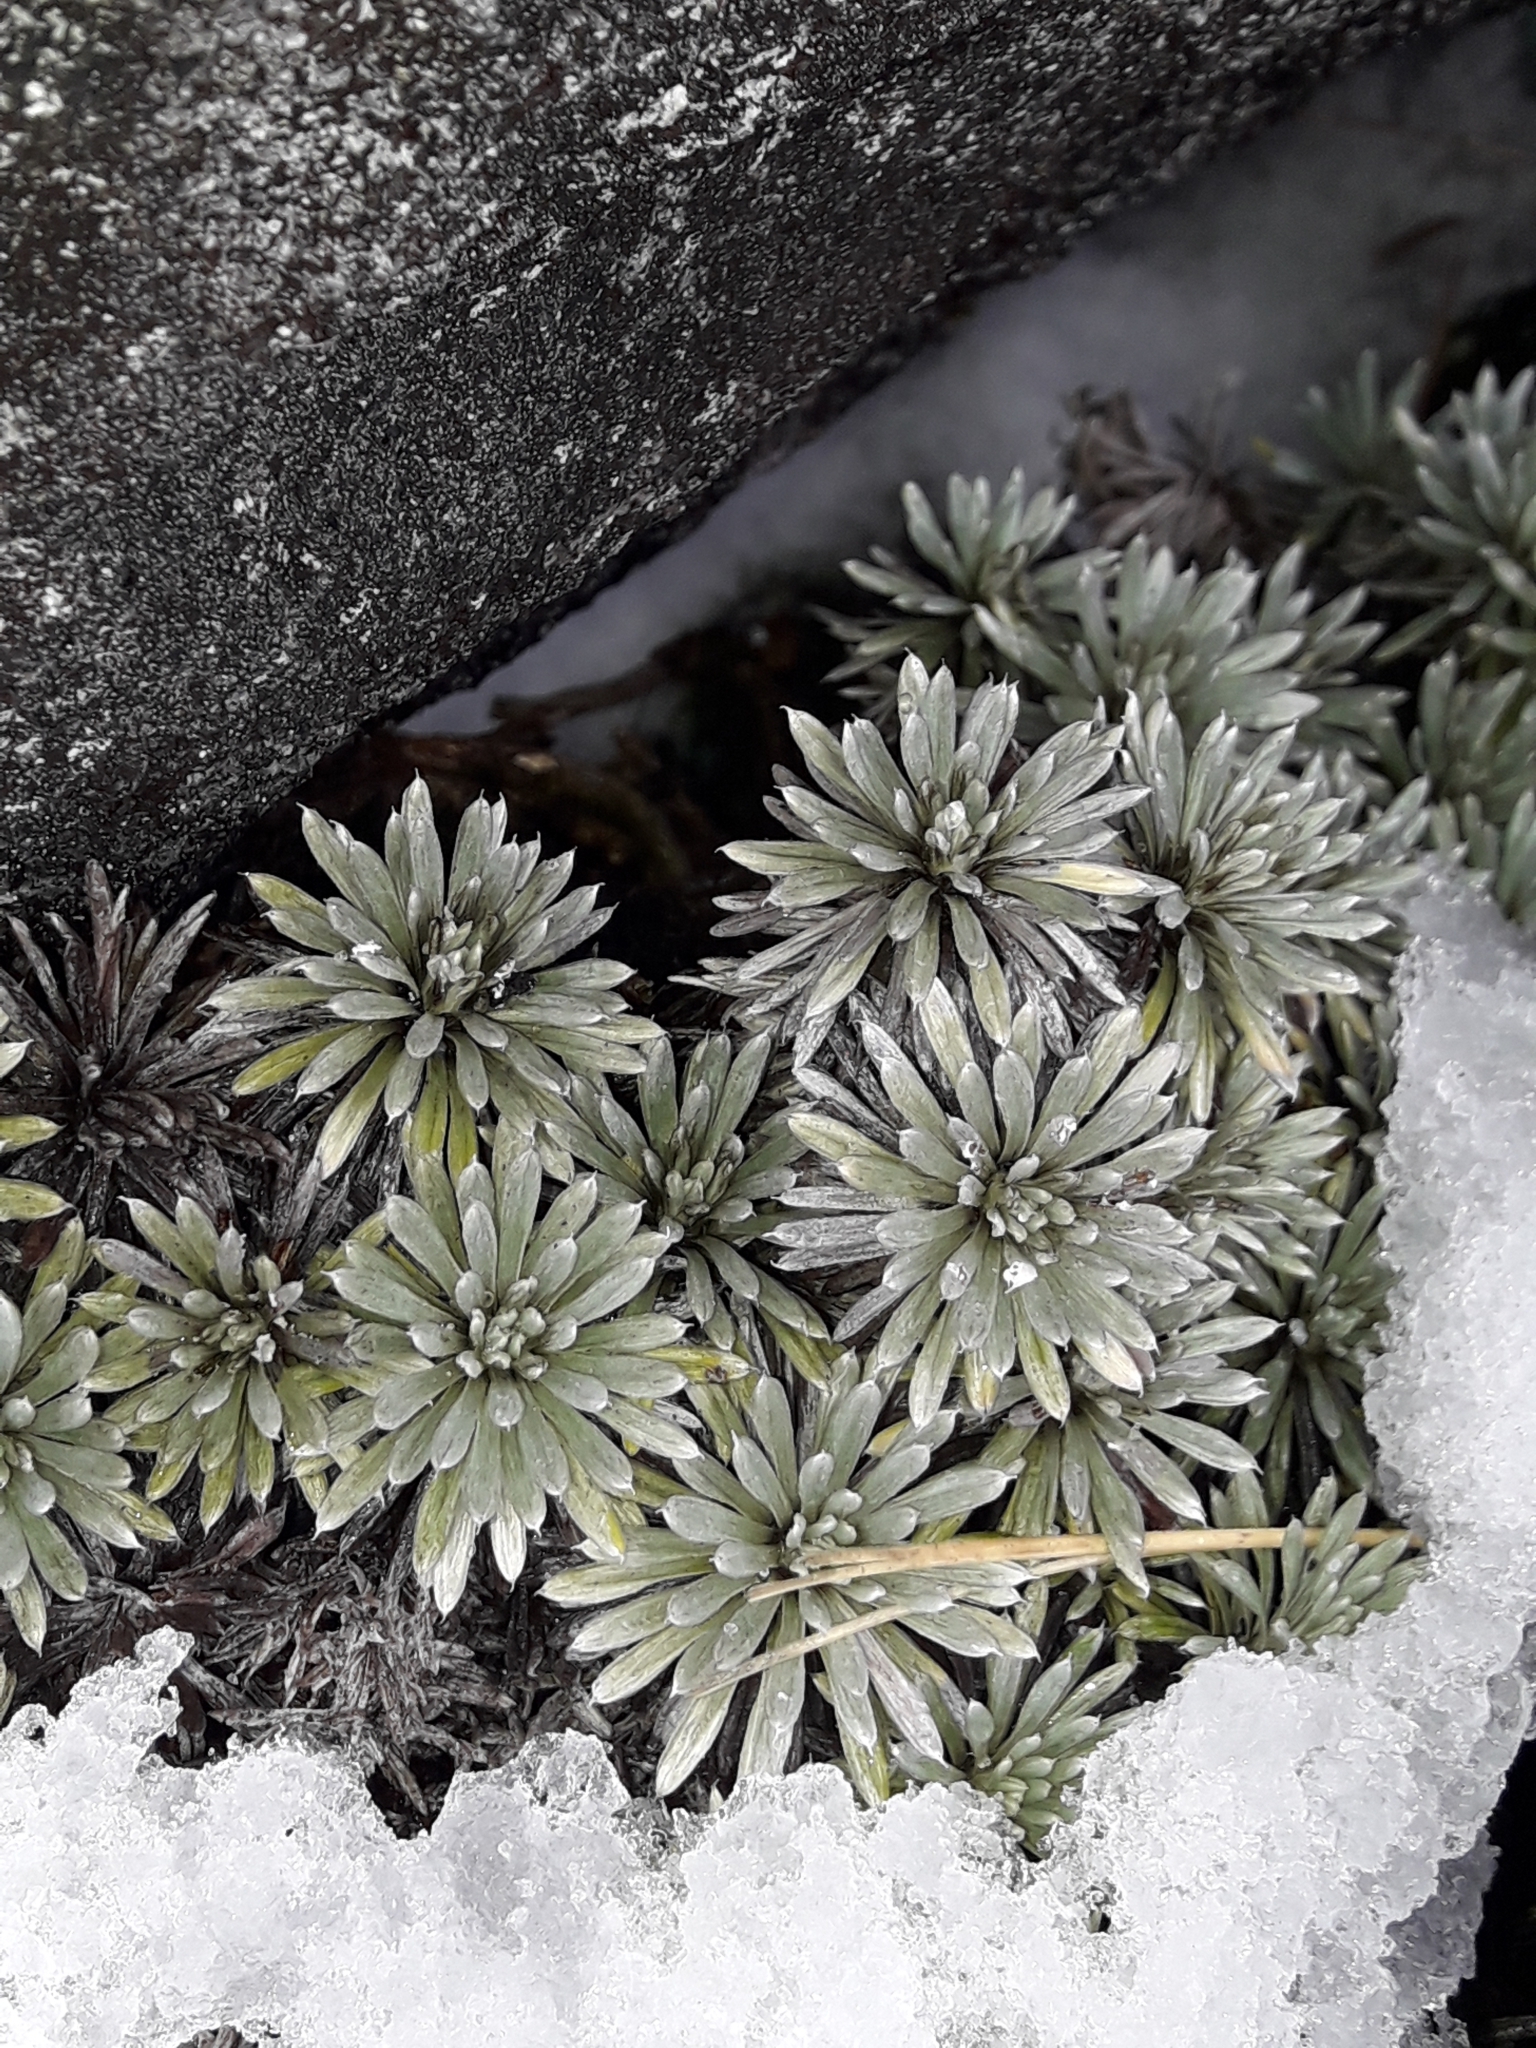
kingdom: Plantae
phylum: Tracheophyta
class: Magnoliopsida
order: Asterales
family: Asteraceae
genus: Celmisia
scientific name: Celmisia hectorii
